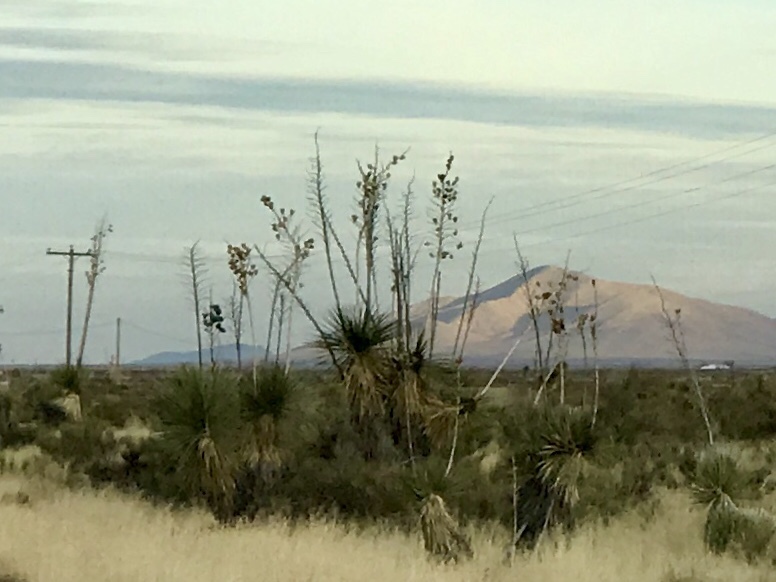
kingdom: Plantae
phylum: Tracheophyta
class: Liliopsida
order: Asparagales
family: Asparagaceae
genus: Yucca
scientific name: Yucca elata
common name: Palmella
